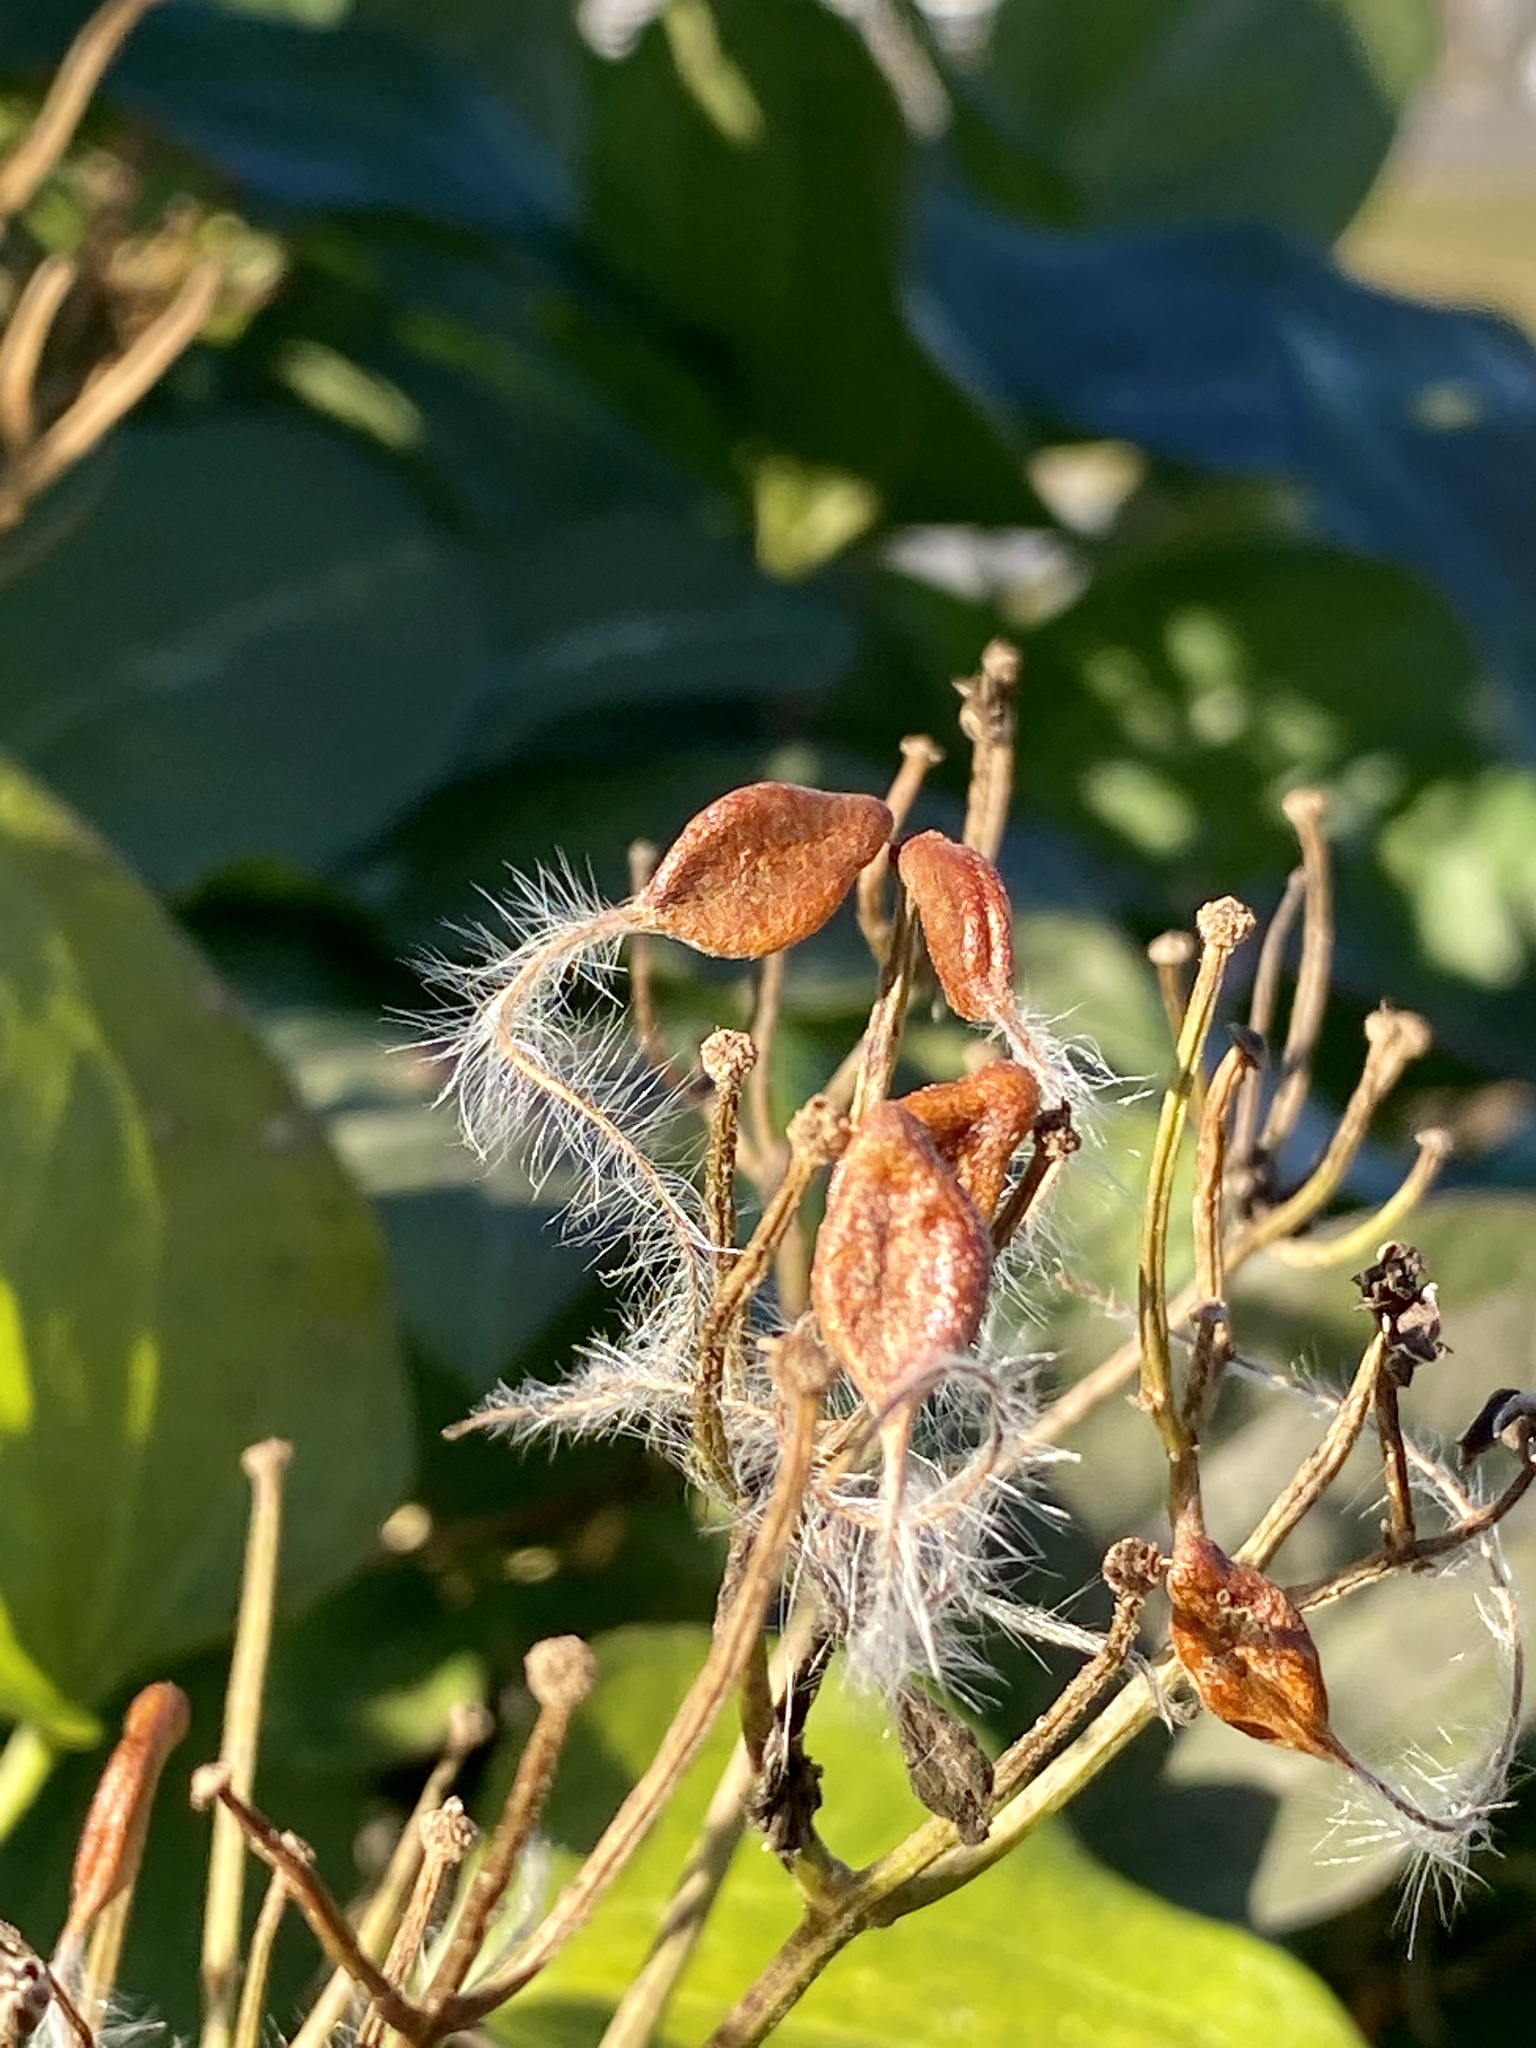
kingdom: Plantae
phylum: Tracheophyta
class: Magnoliopsida
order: Ranunculales
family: Ranunculaceae
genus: Clematis
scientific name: Clematis terniflora
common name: Sweet autumn clematis
